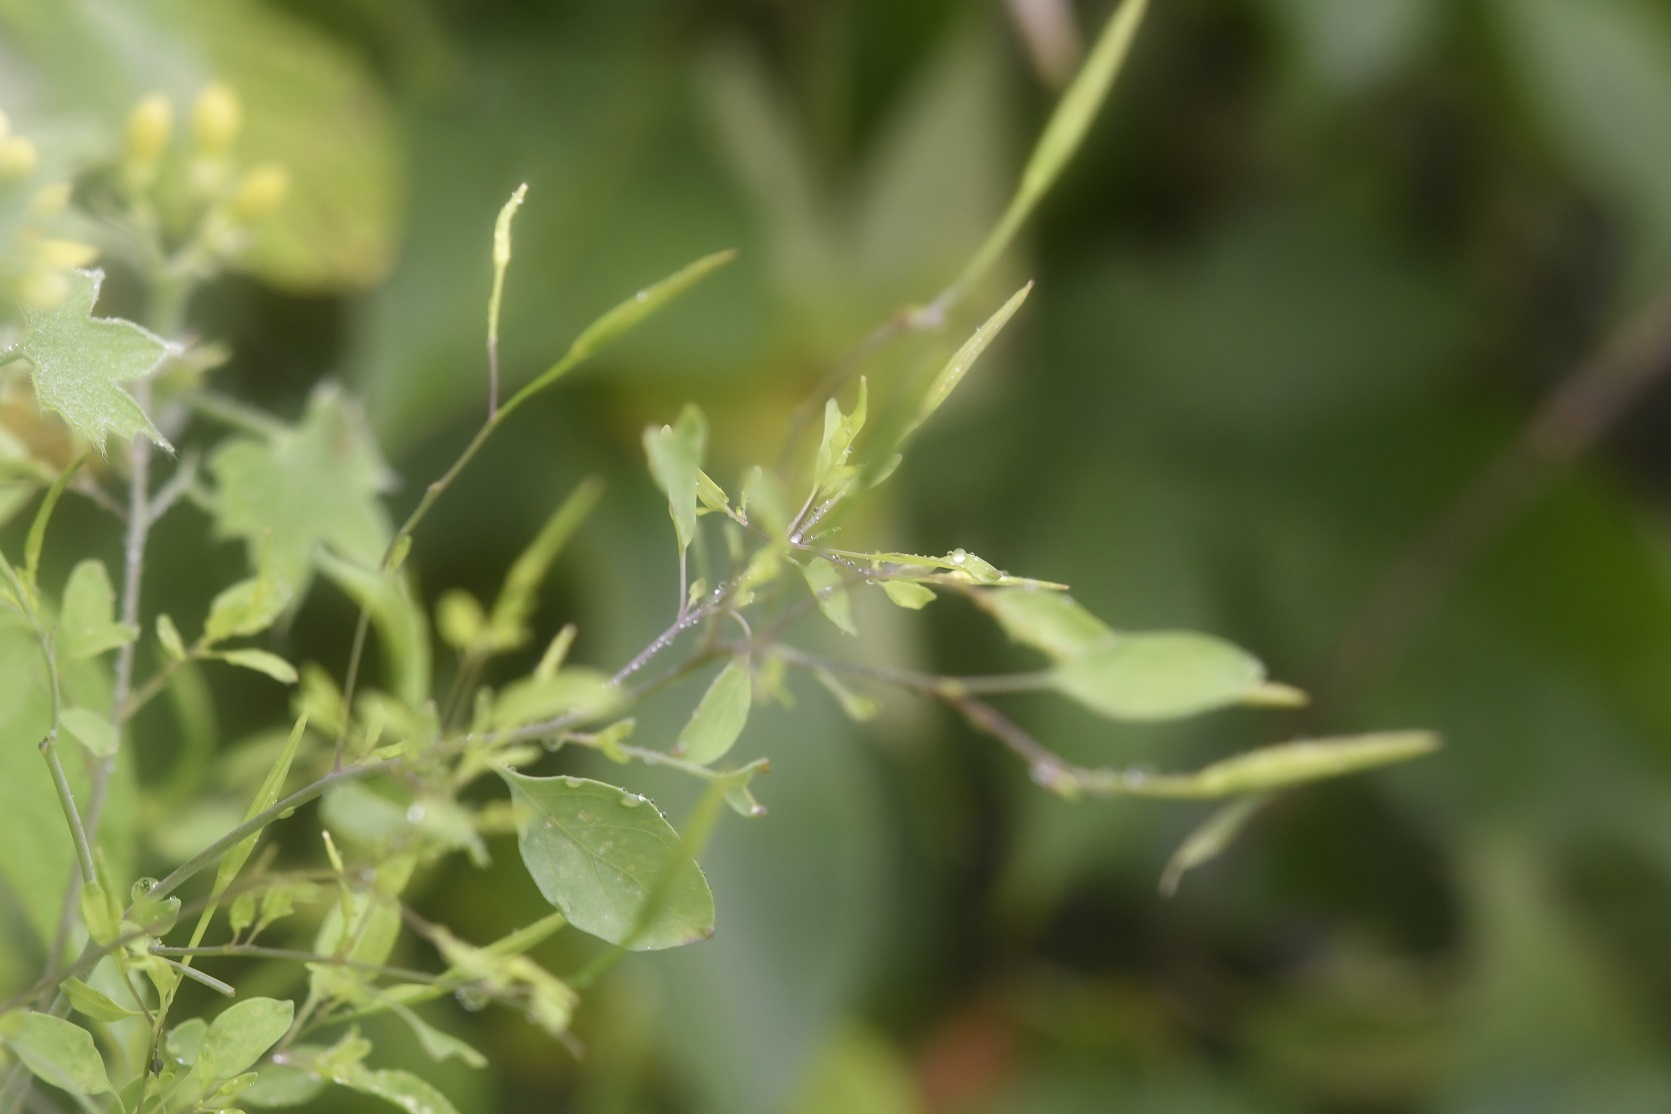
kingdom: Plantae
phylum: Tracheophyta
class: Magnoliopsida
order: Asterales
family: Asteraceae
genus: Porophyllum
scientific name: Porophyllum ruderale
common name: Yerba porosa
